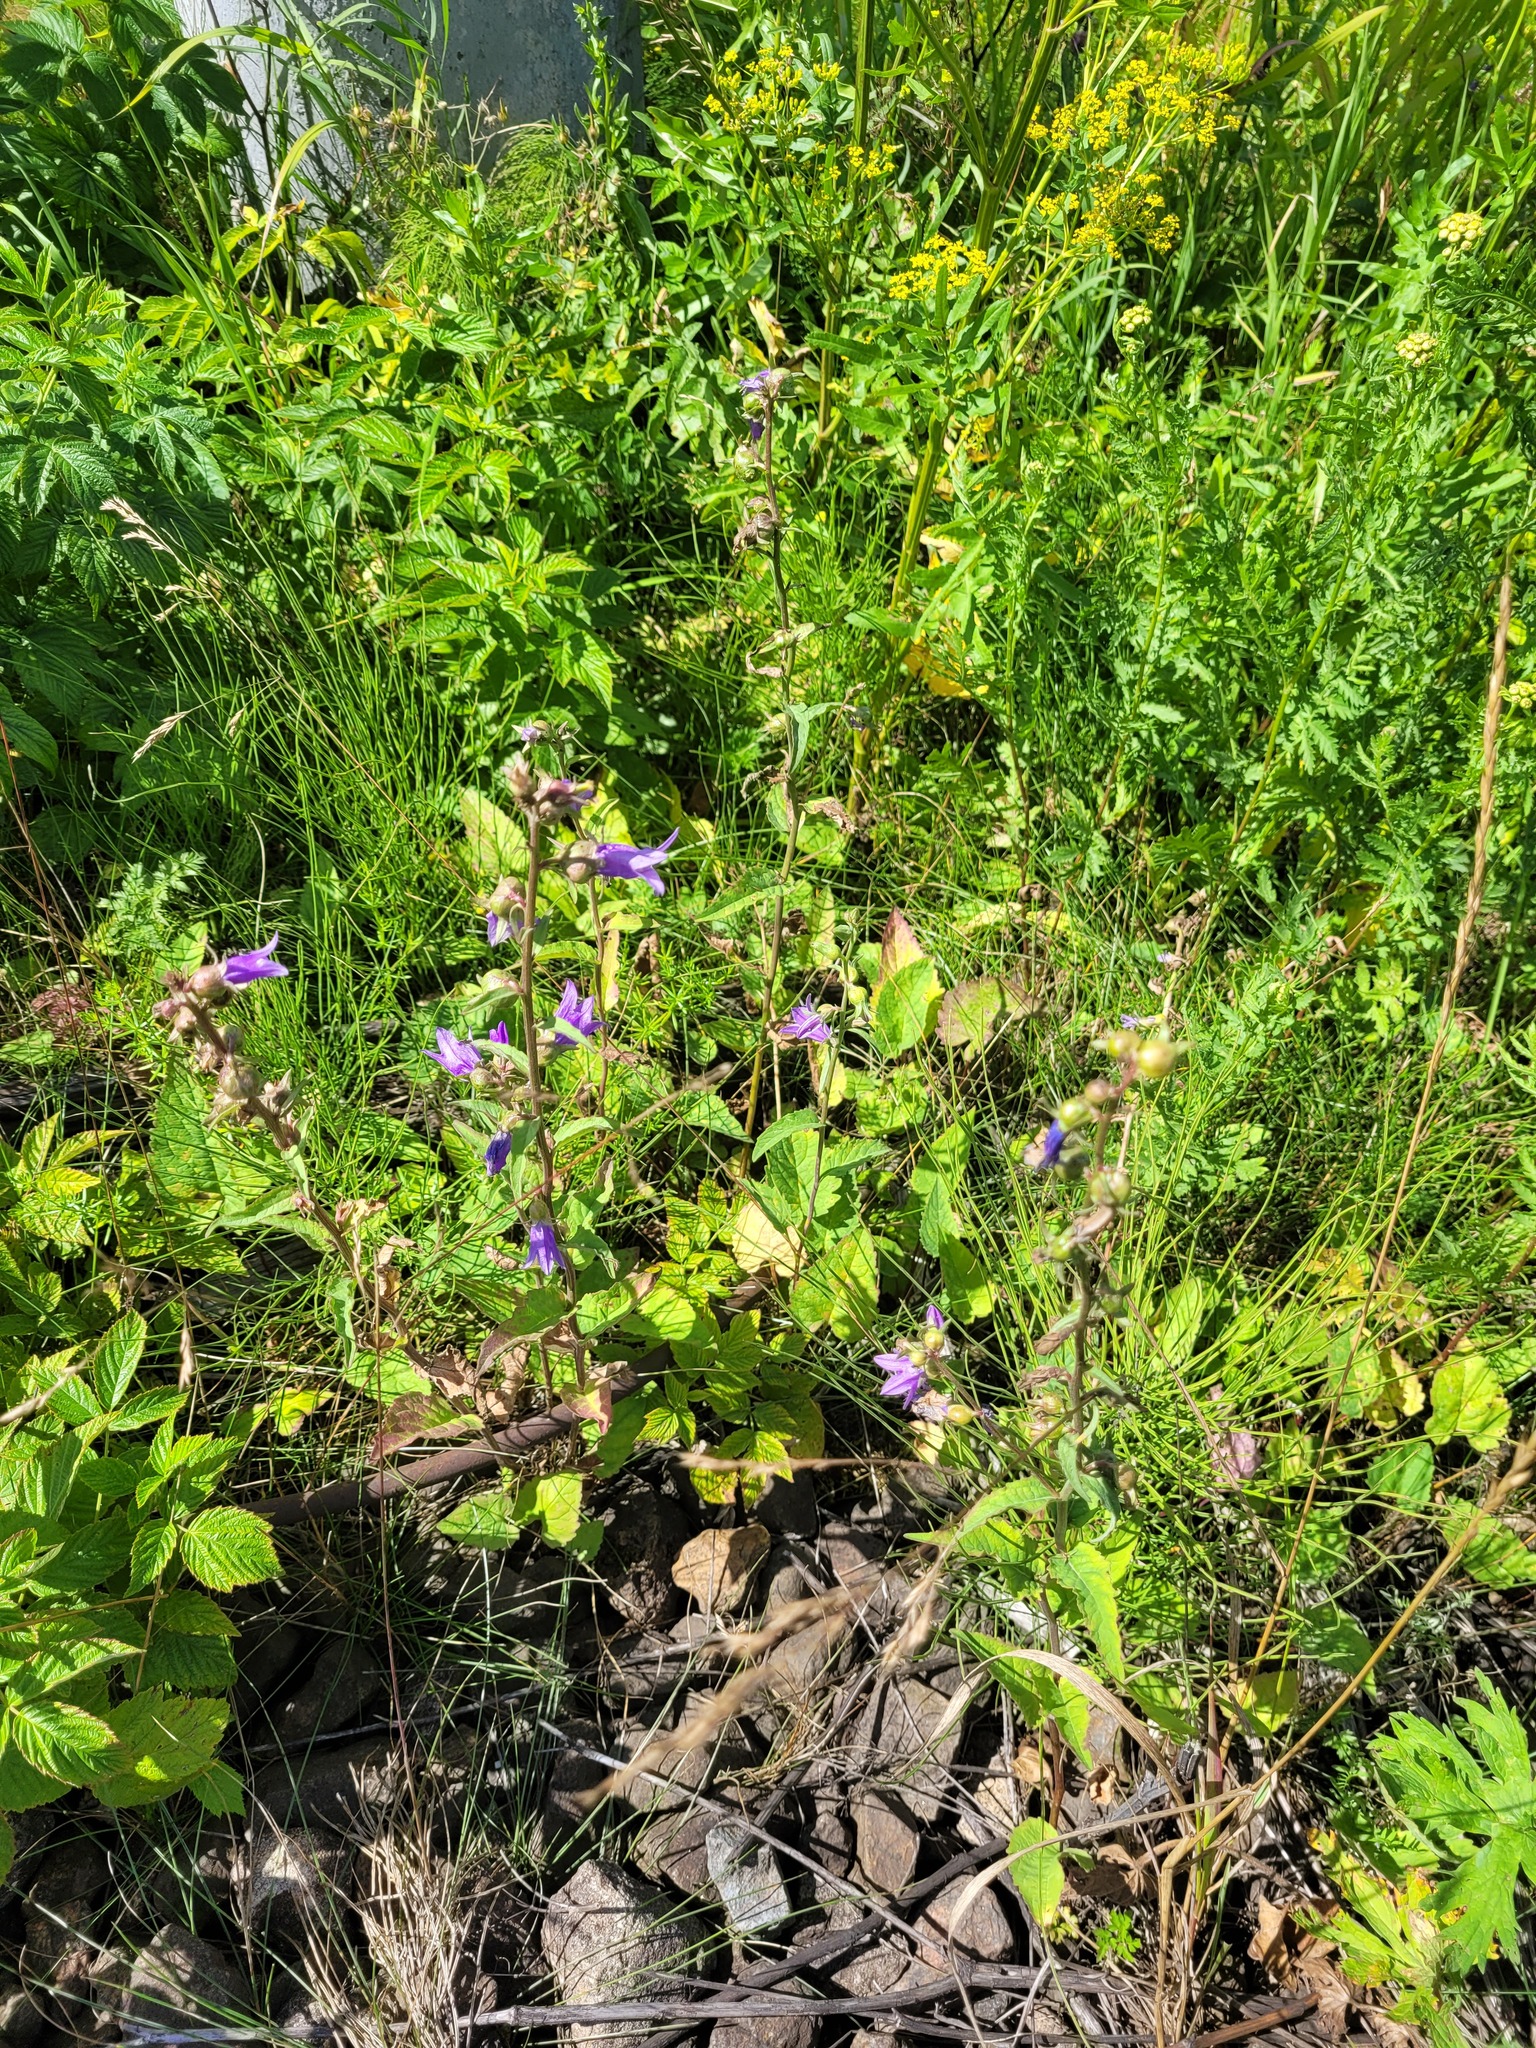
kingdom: Plantae
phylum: Tracheophyta
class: Magnoliopsida
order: Asterales
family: Campanulaceae
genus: Campanula
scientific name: Campanula rapunculoides
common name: Creeping bellflower
